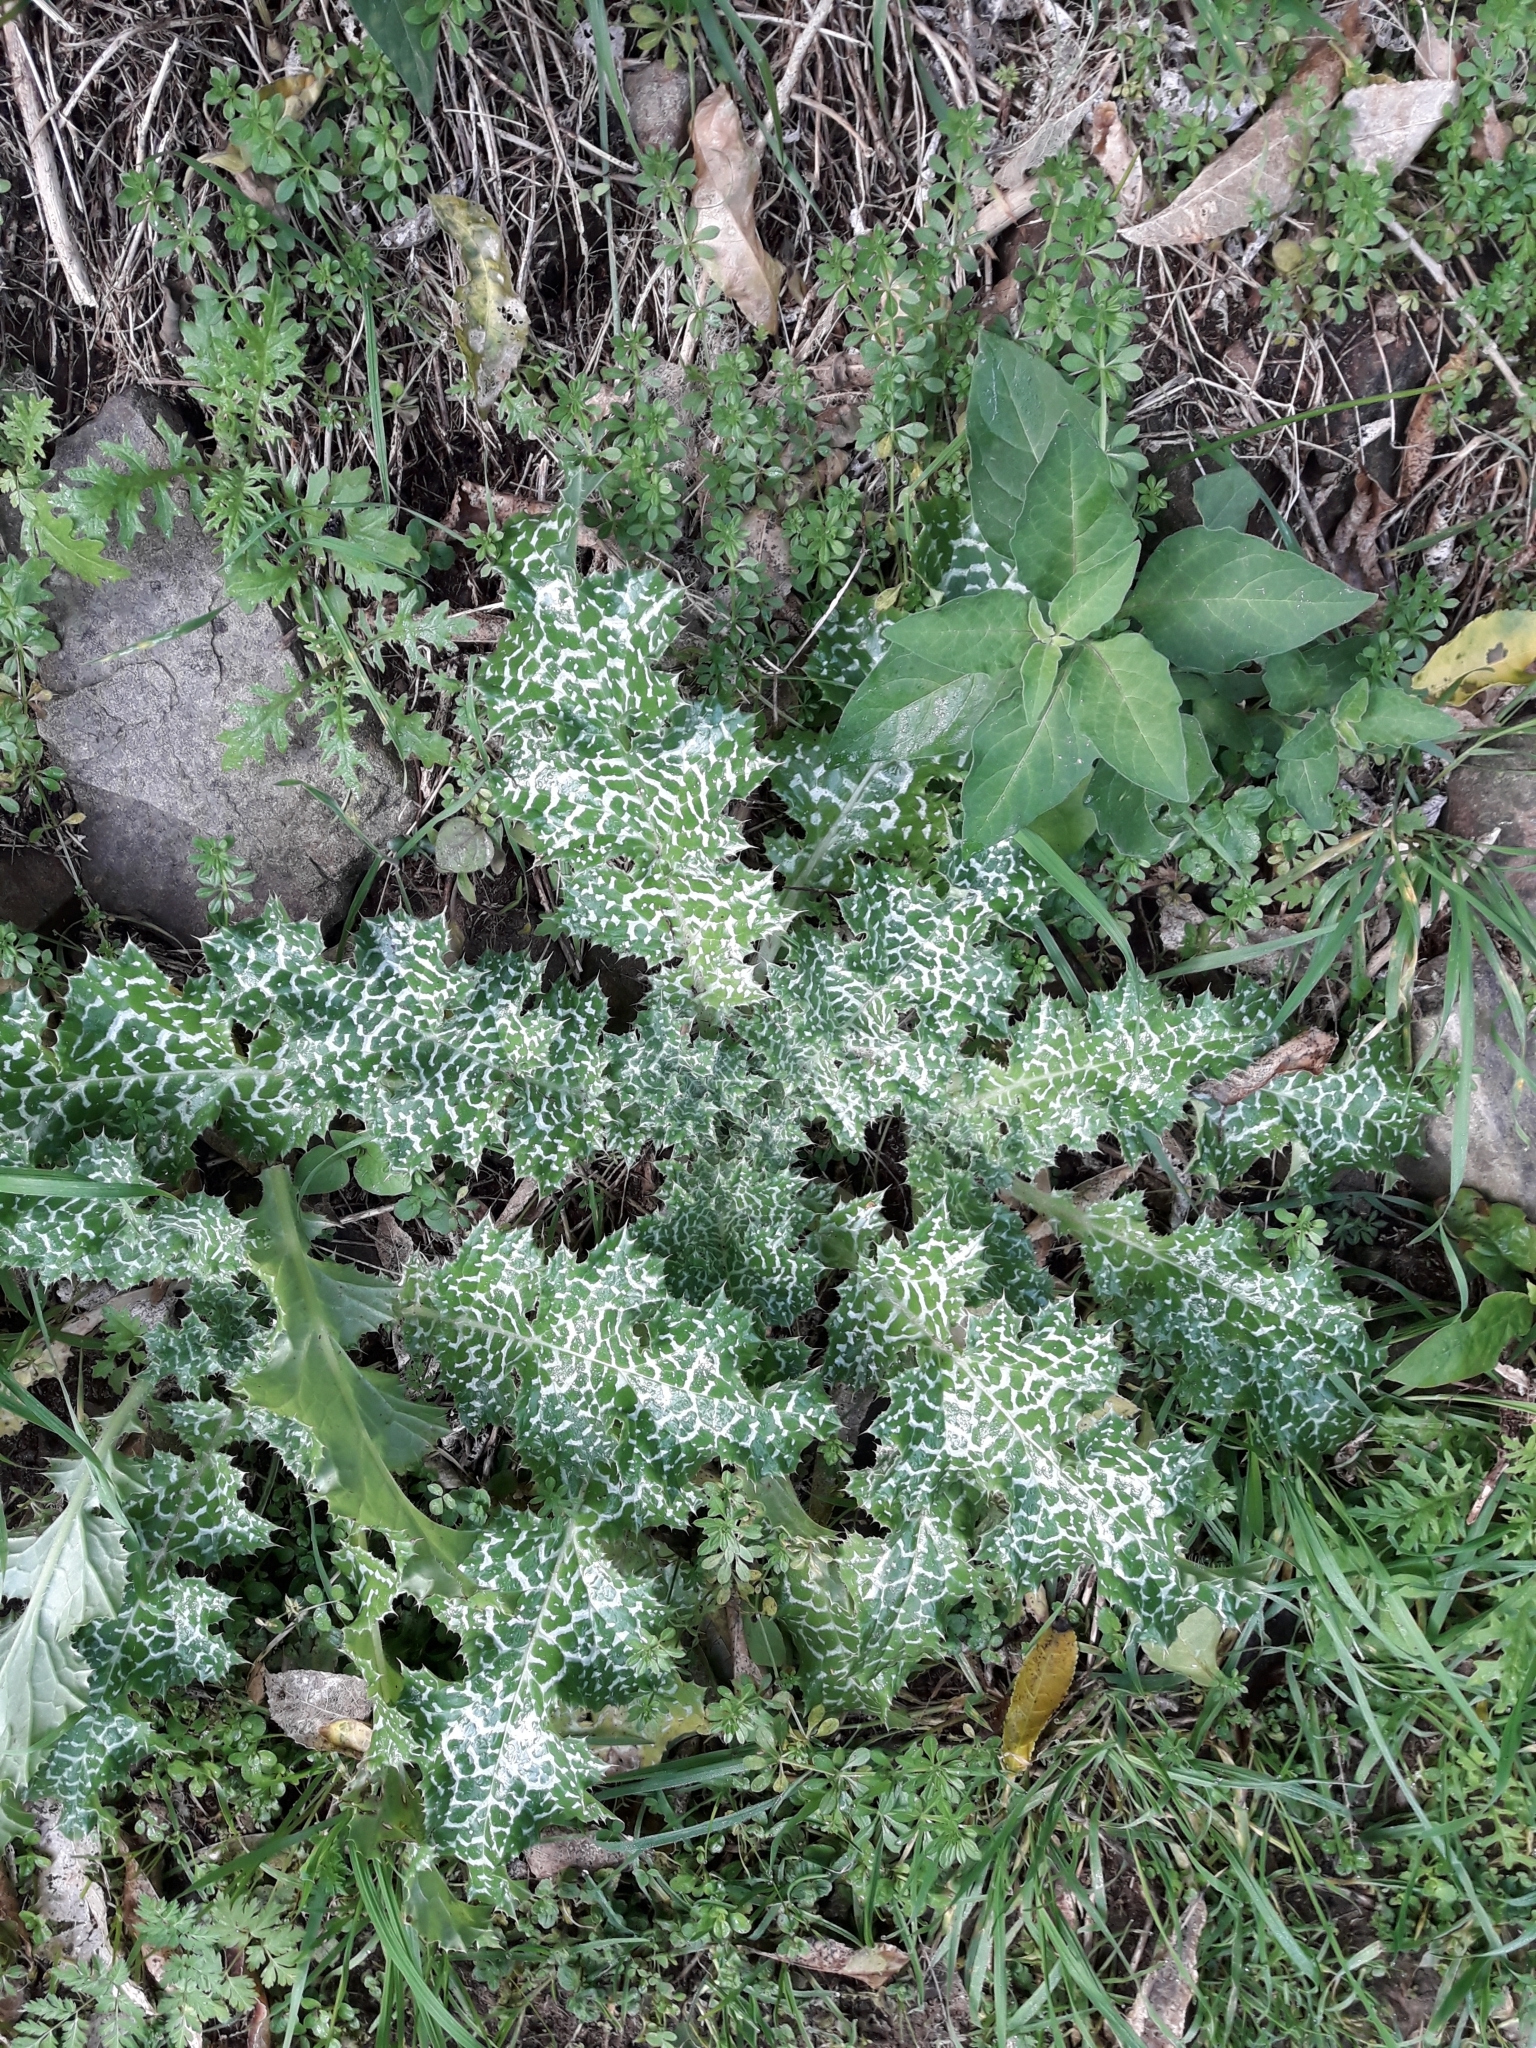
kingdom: Plantae
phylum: Tracheophyta
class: Magnoliopsida
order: Asterales
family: Asteraceae
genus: Silybum
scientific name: Silybum marianum
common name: Milk thistle
